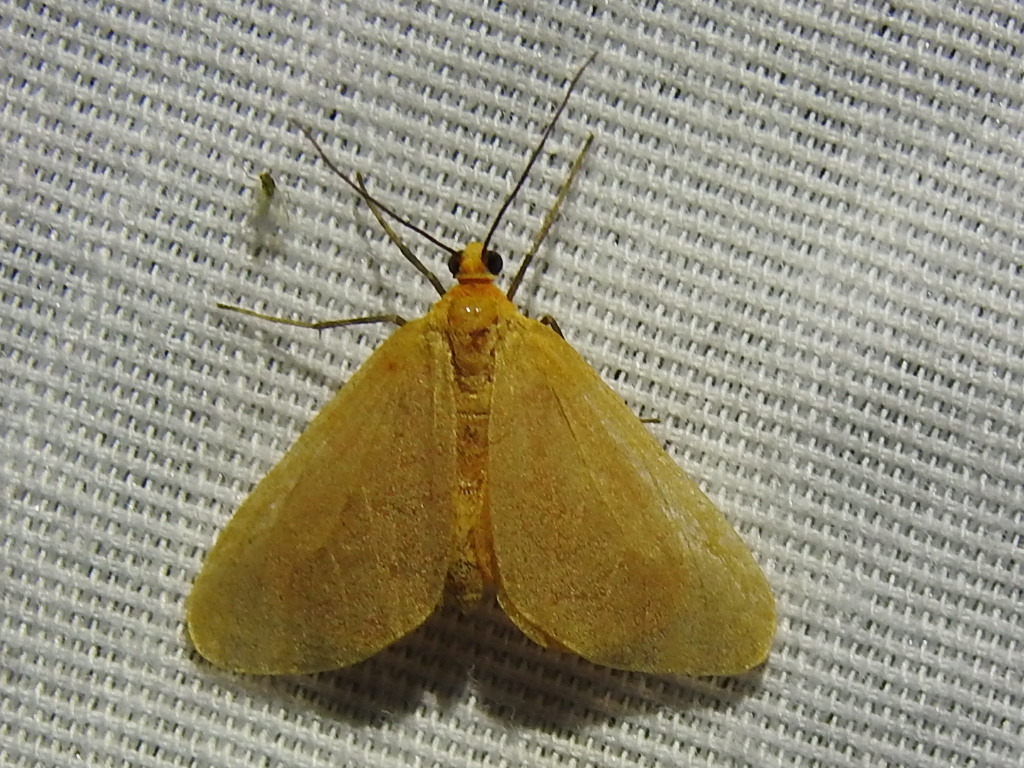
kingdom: Animalia
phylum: Arthropoda
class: Insecta
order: Lepidoptera
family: Geometridae
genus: Eubaphe
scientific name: Eubaphe unicolor
